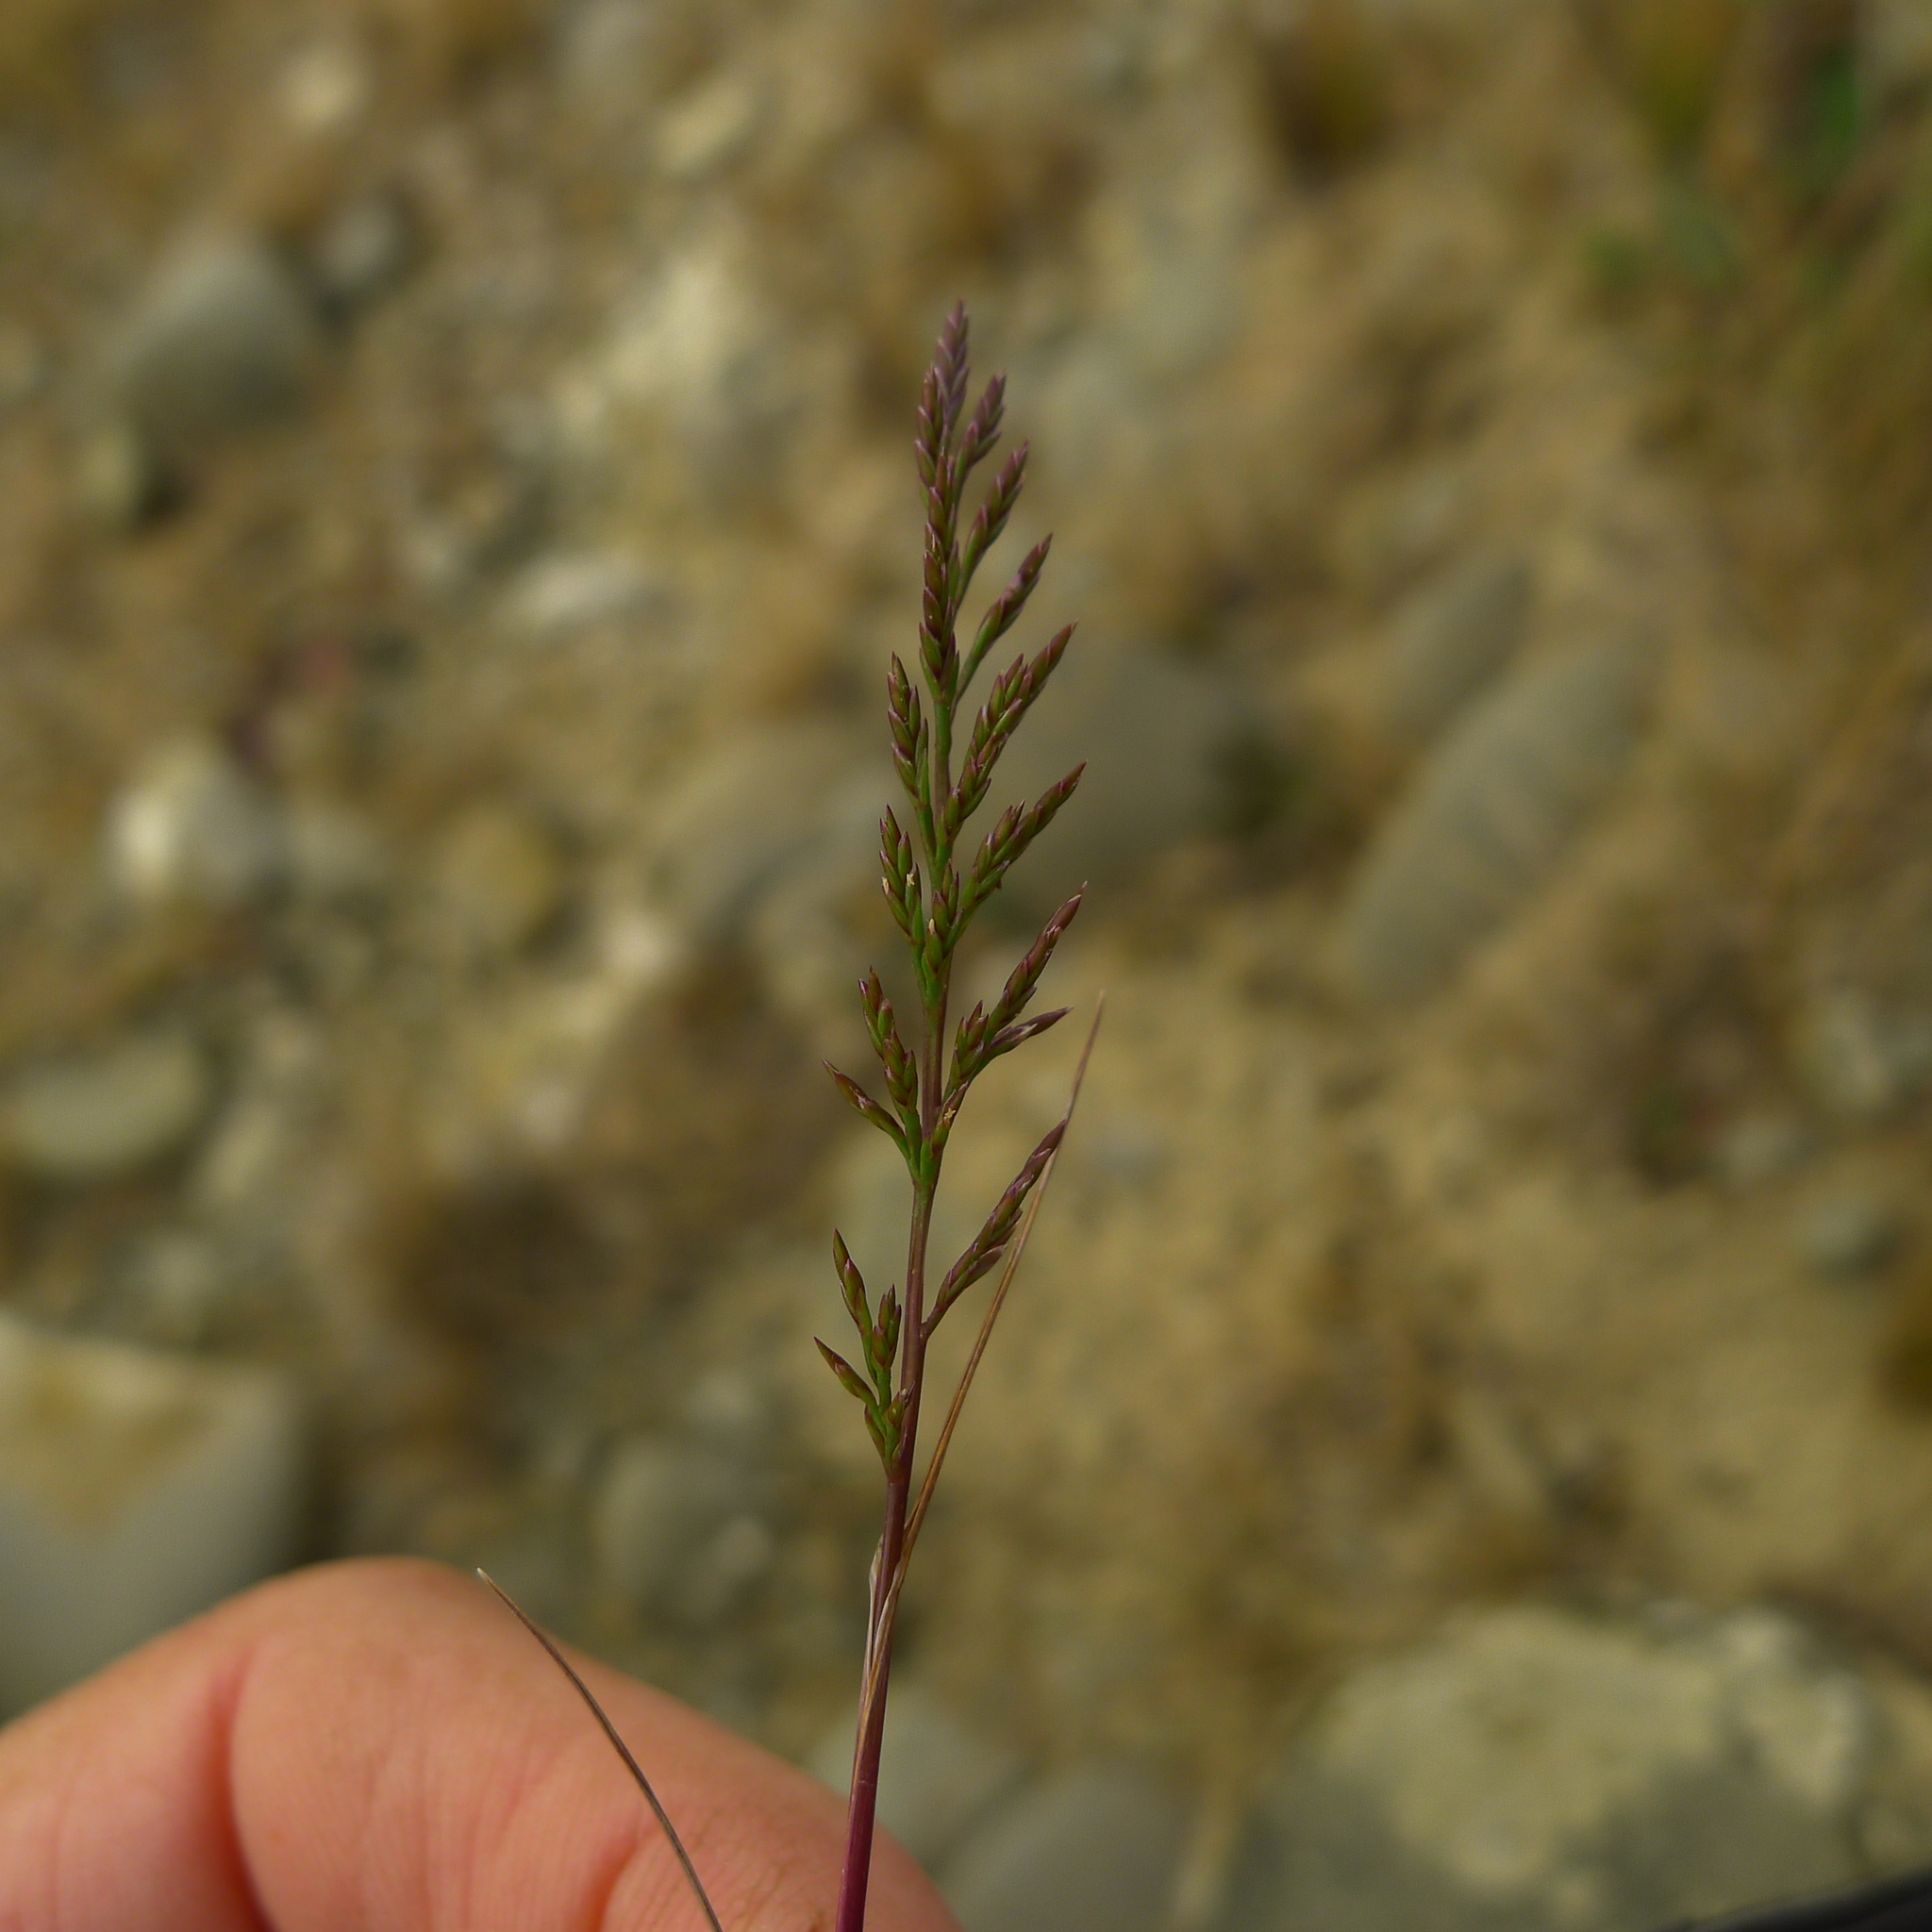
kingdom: Plantae
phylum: Tracheophyta
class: Liliopsida
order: Poales
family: Poaceae
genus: Catapodium
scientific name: Catapodium rigidum
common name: Fern-grass
